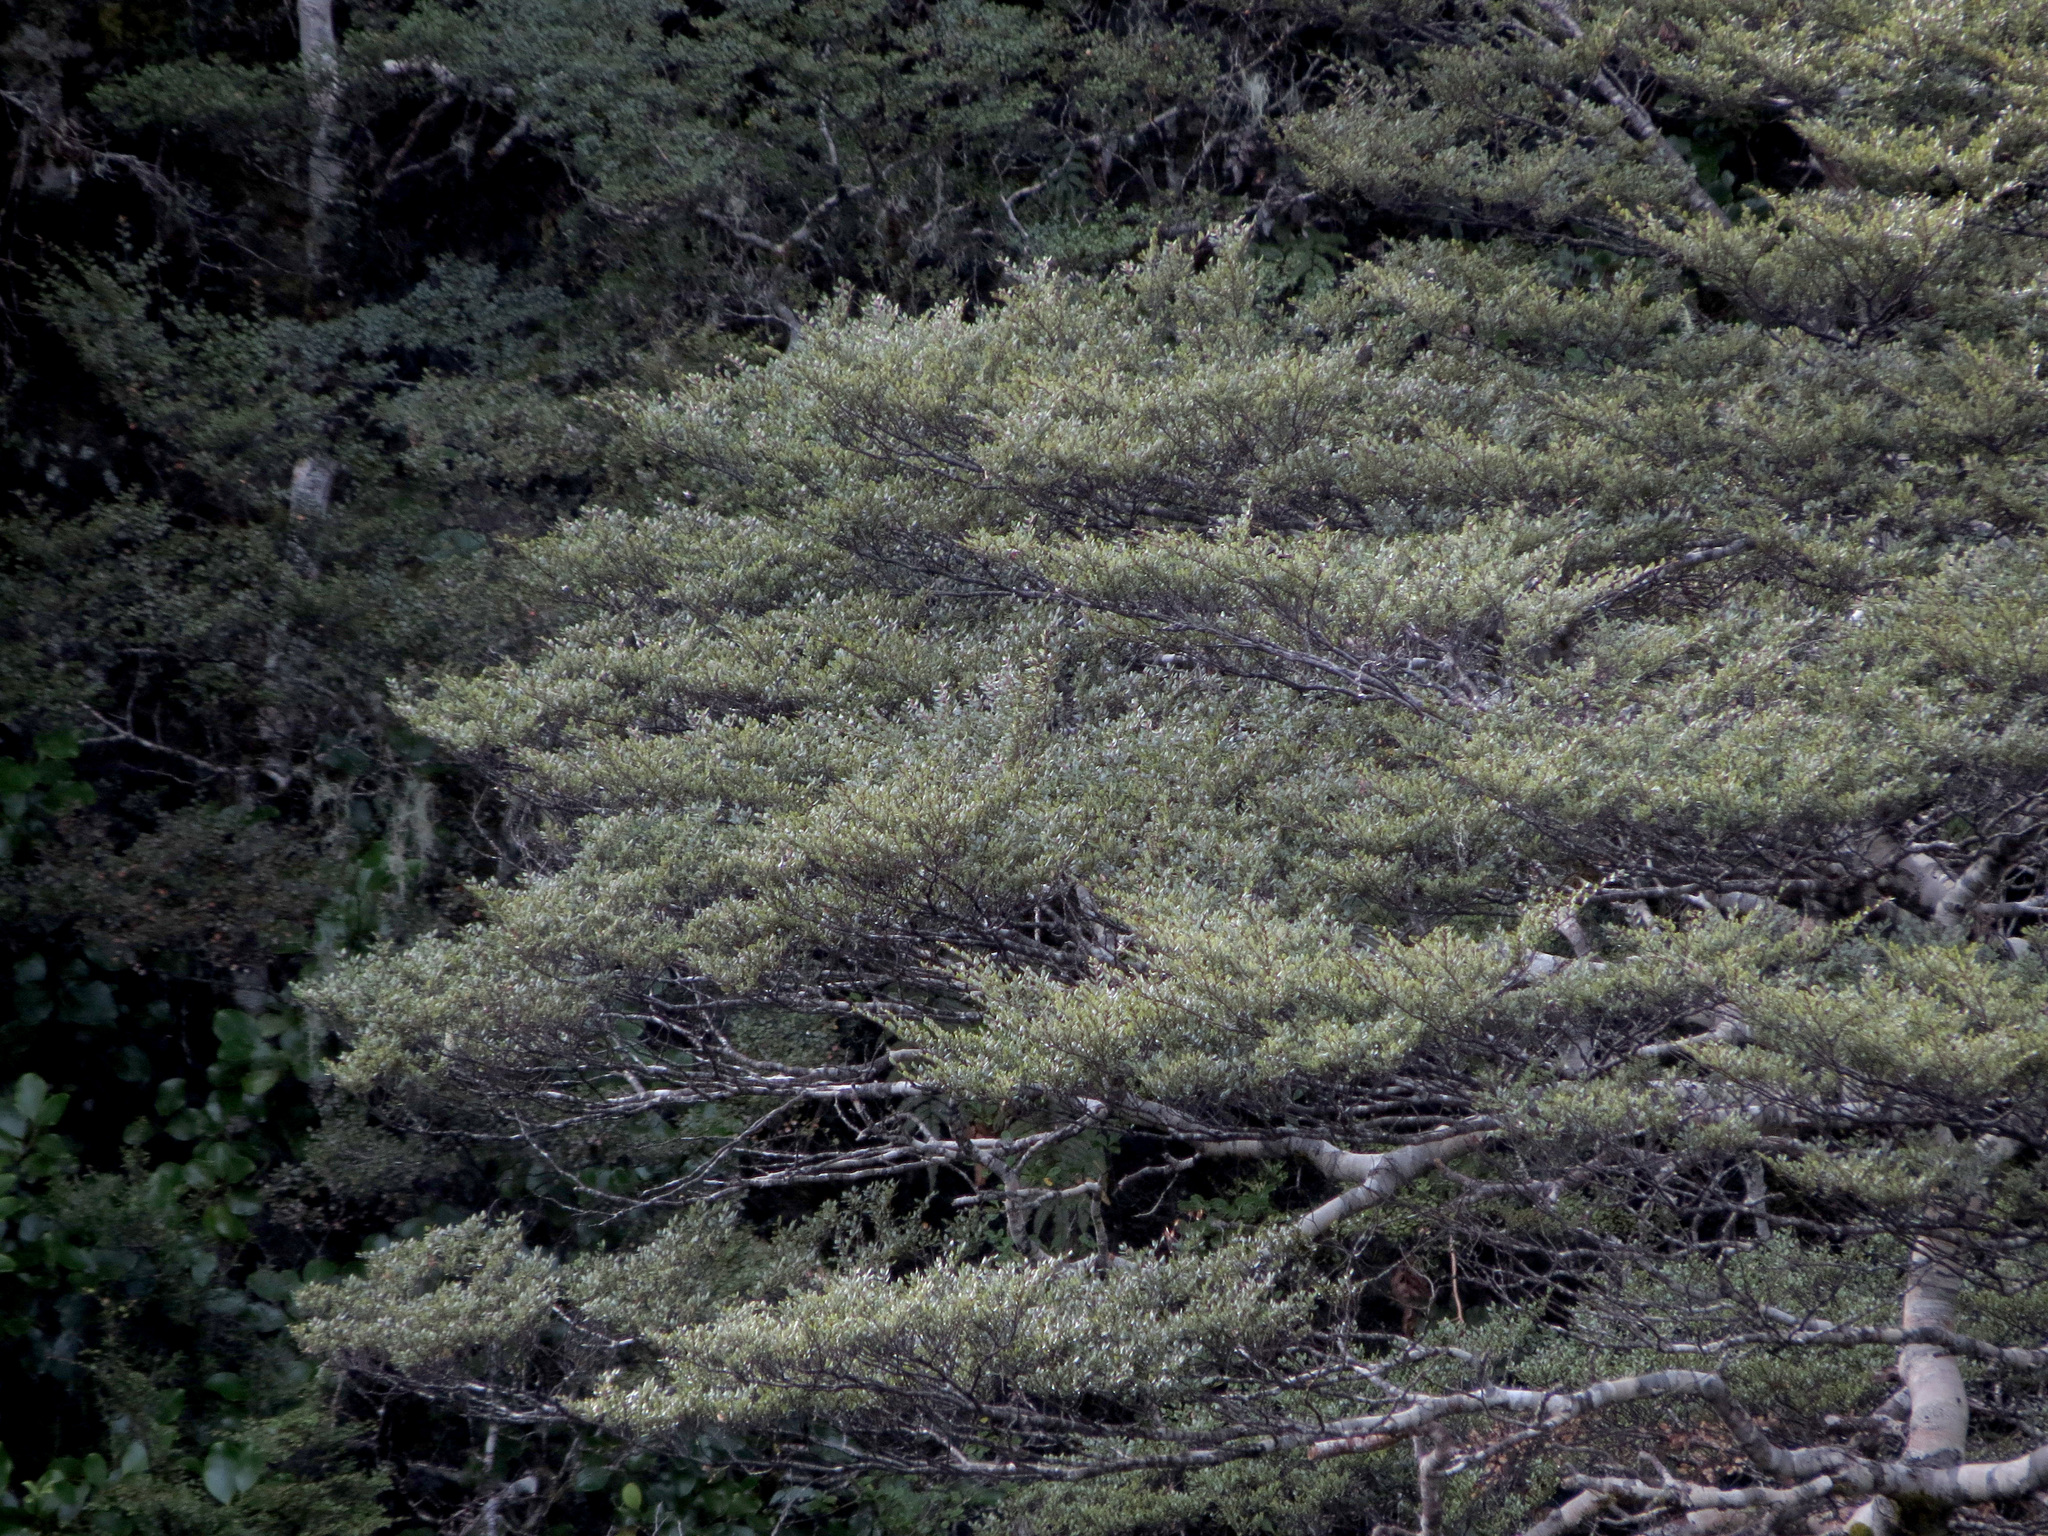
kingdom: Plantae
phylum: Tracheophyta
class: Magnoliopsida
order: Fagales
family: Nothofagaceae
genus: Nothofagus
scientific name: Nothofagus cliffortioides
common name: Mountain beech
